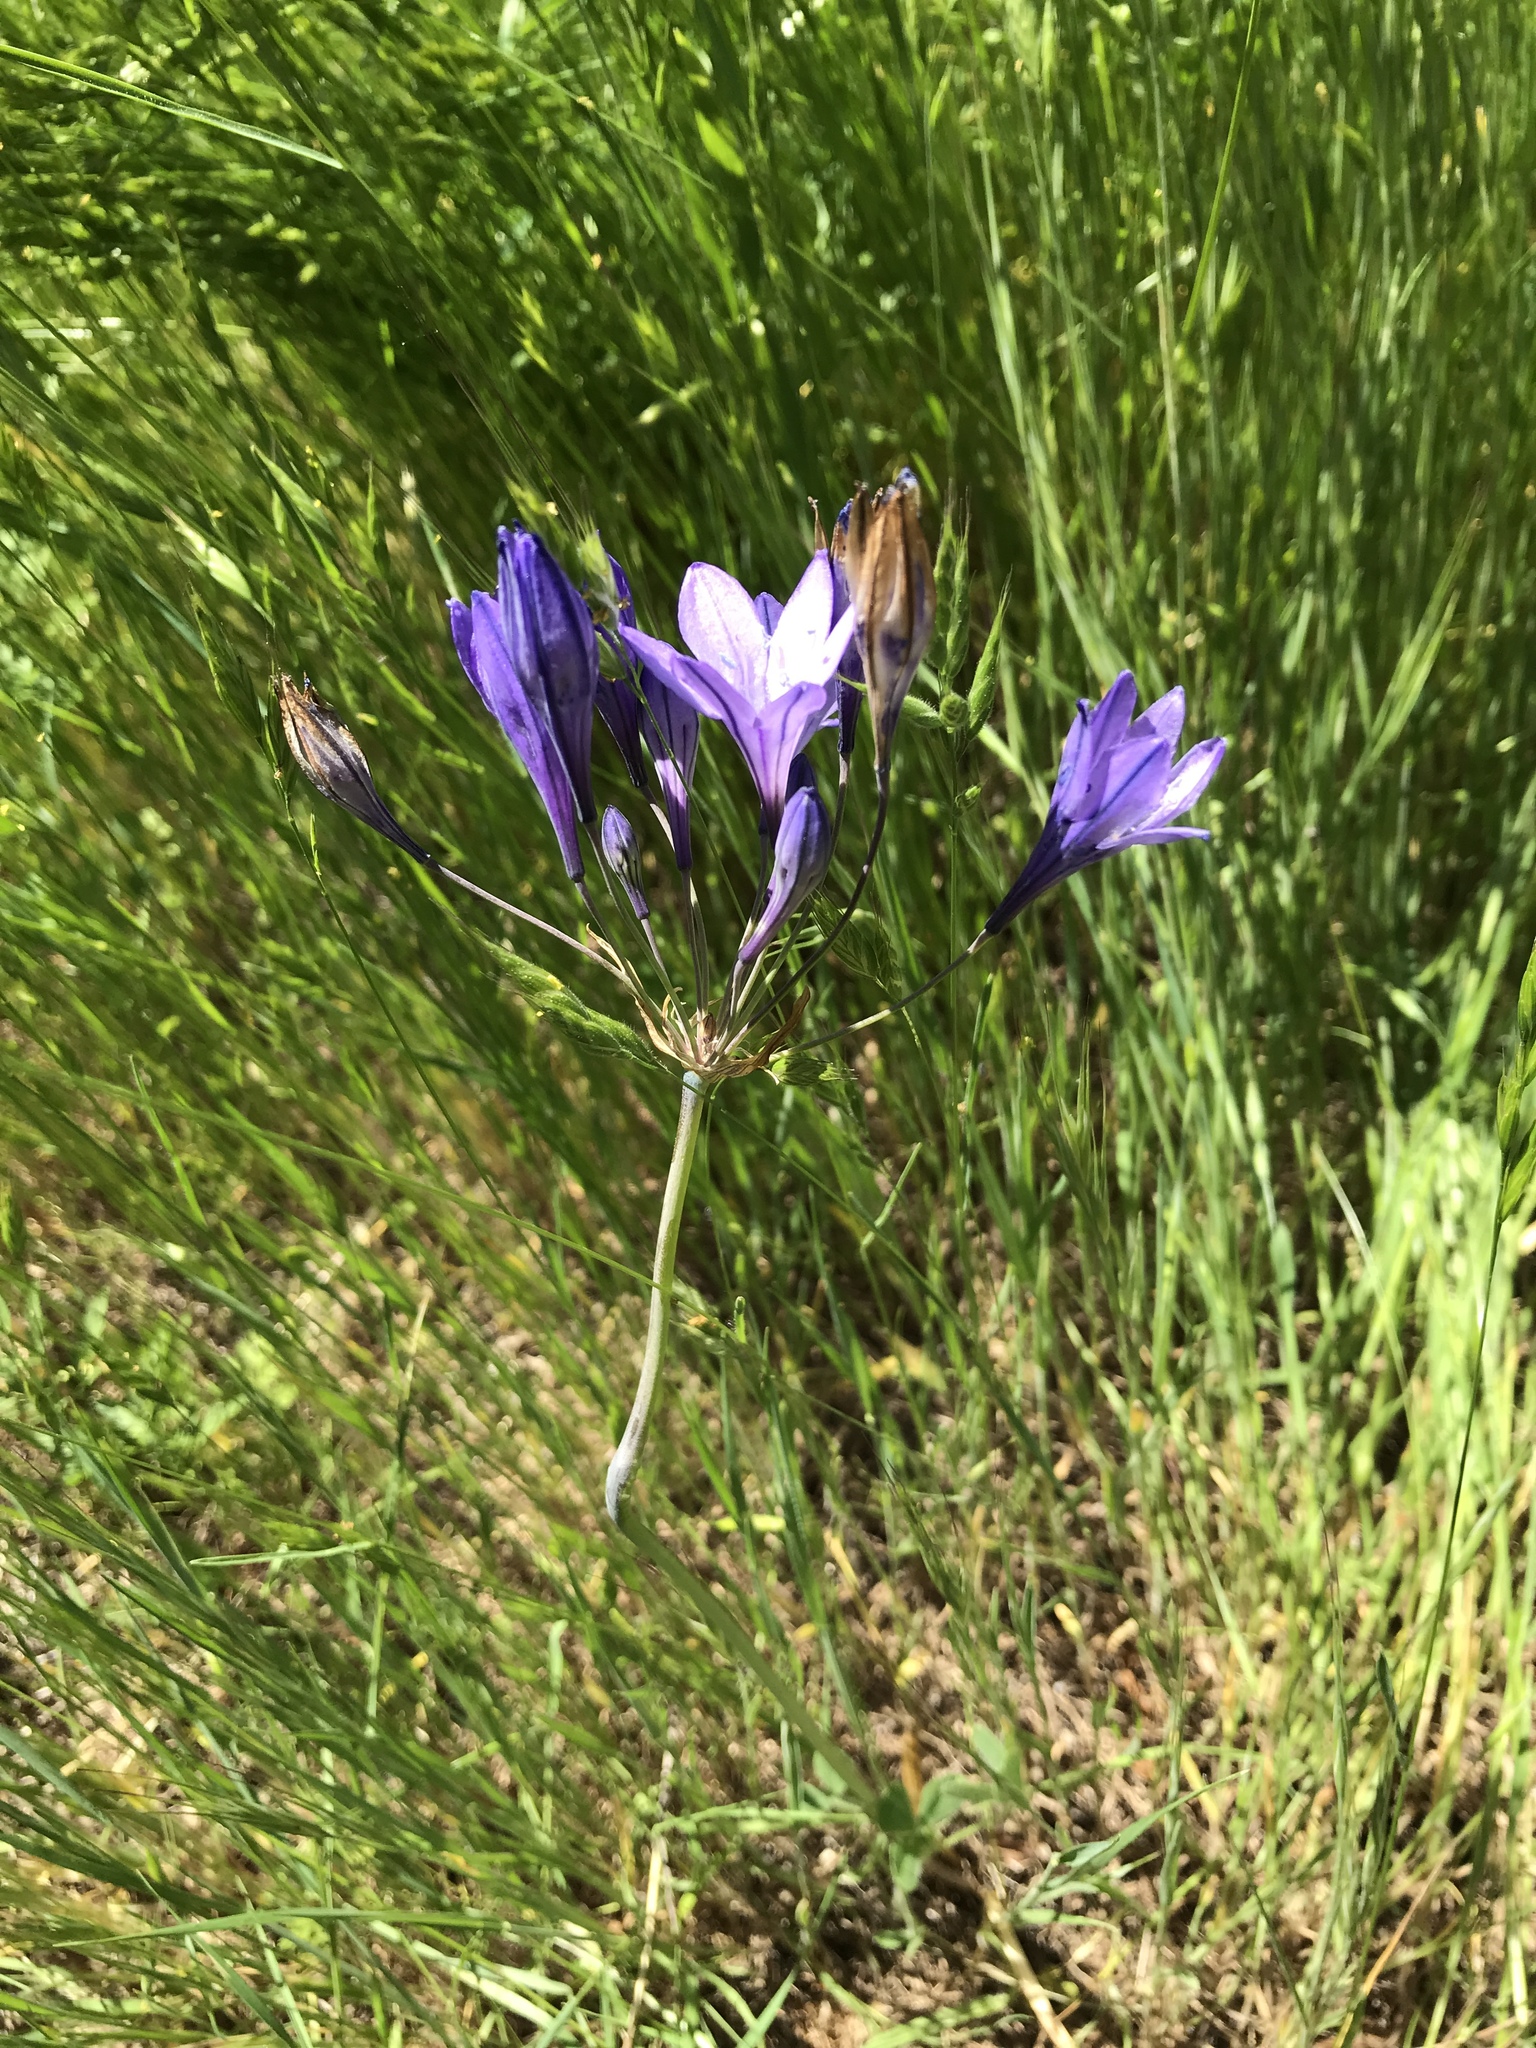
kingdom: Plantae
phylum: Tracheophyta
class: Liliopsida
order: Asparagales
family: Asparagaceae
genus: Triteleia
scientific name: Triteleia laxa
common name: Triplet-lily
